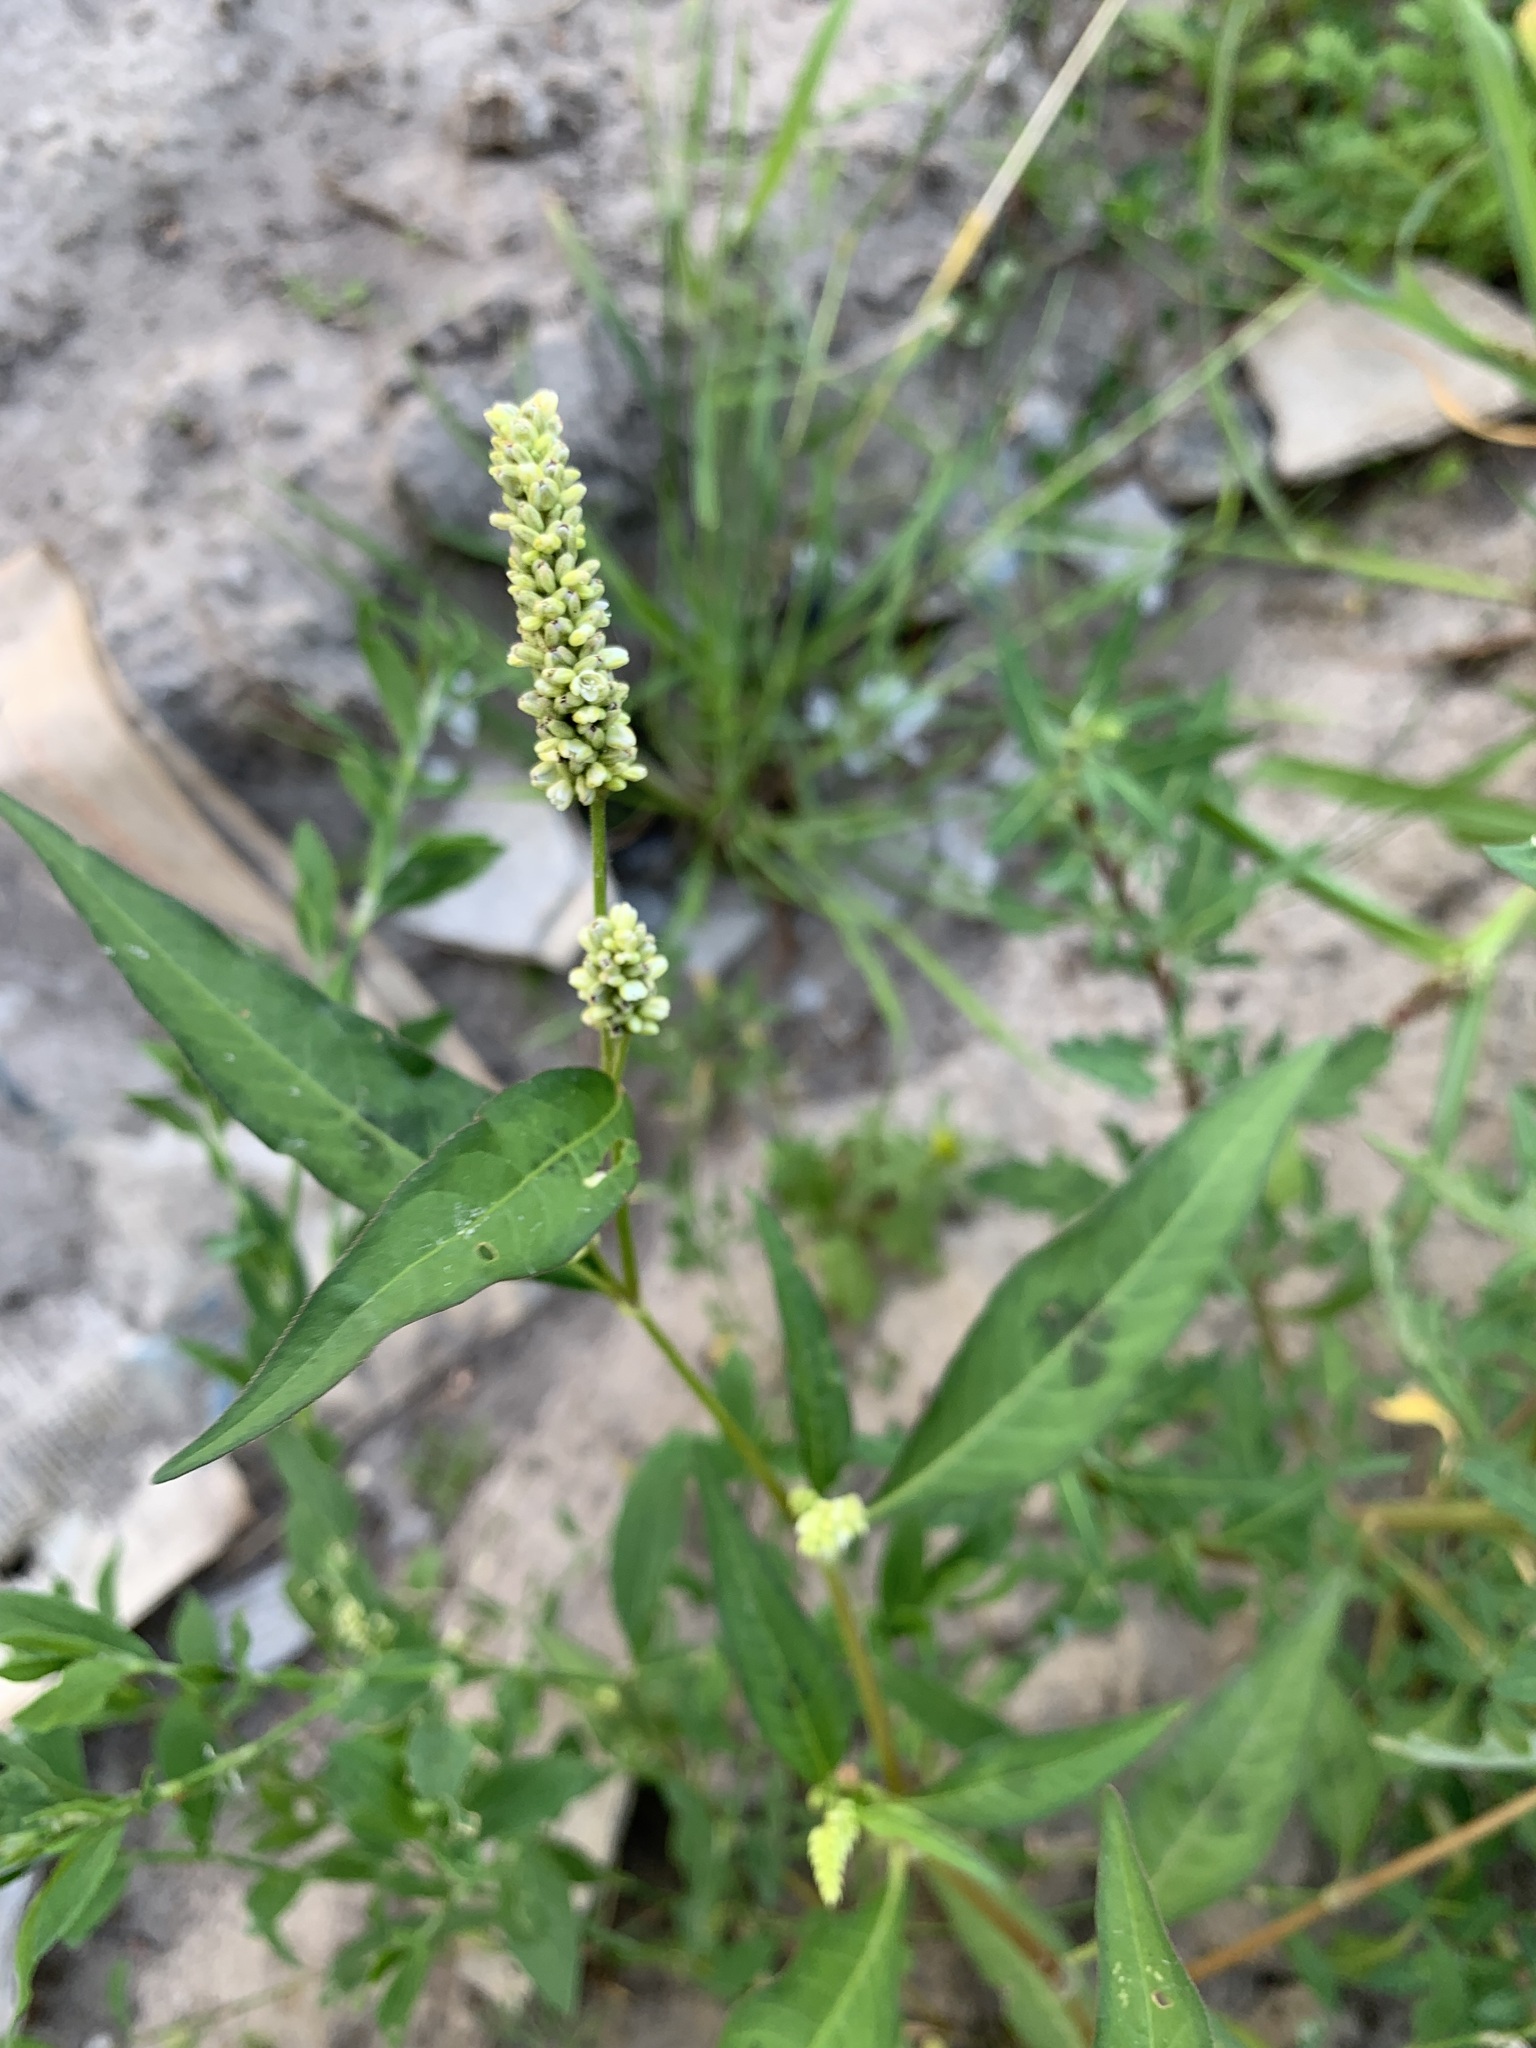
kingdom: Plantae
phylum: Tracheophyta
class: Magnoliopsida
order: Caryophyllales
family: Polygonaceae
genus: Persicaria
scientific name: Persicaria
